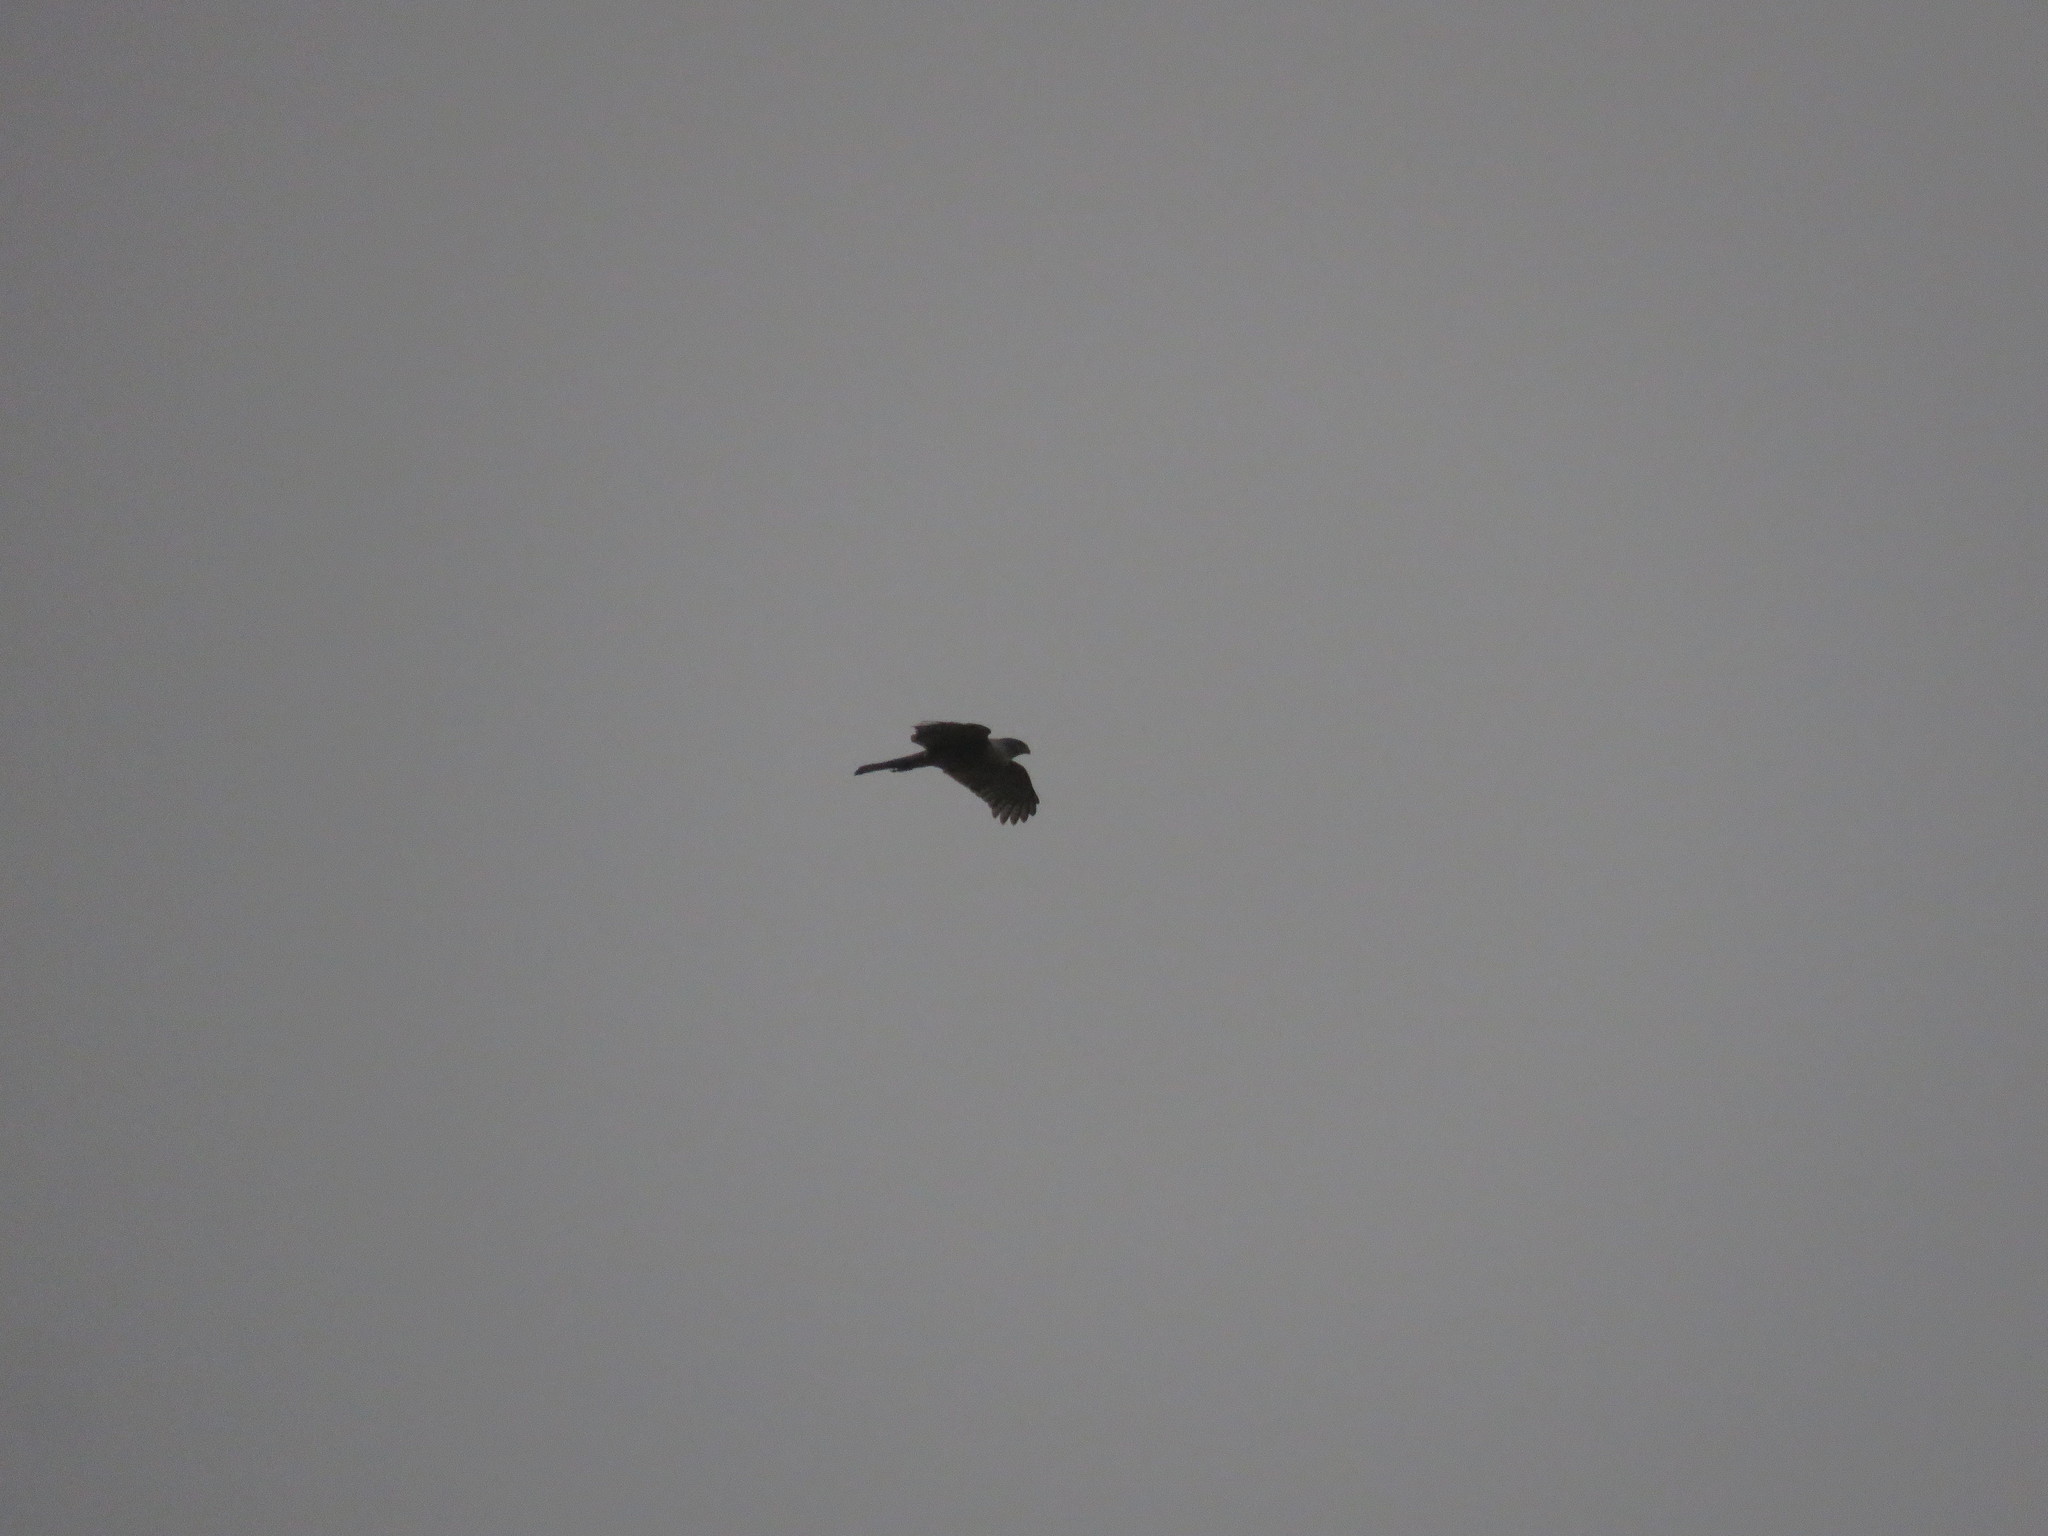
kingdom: Animalia
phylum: Chordata
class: Aves
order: Accipitriformes
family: Accipitridae
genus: Accipiter
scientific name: Accipiter bicolor
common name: Bicolored hawk
